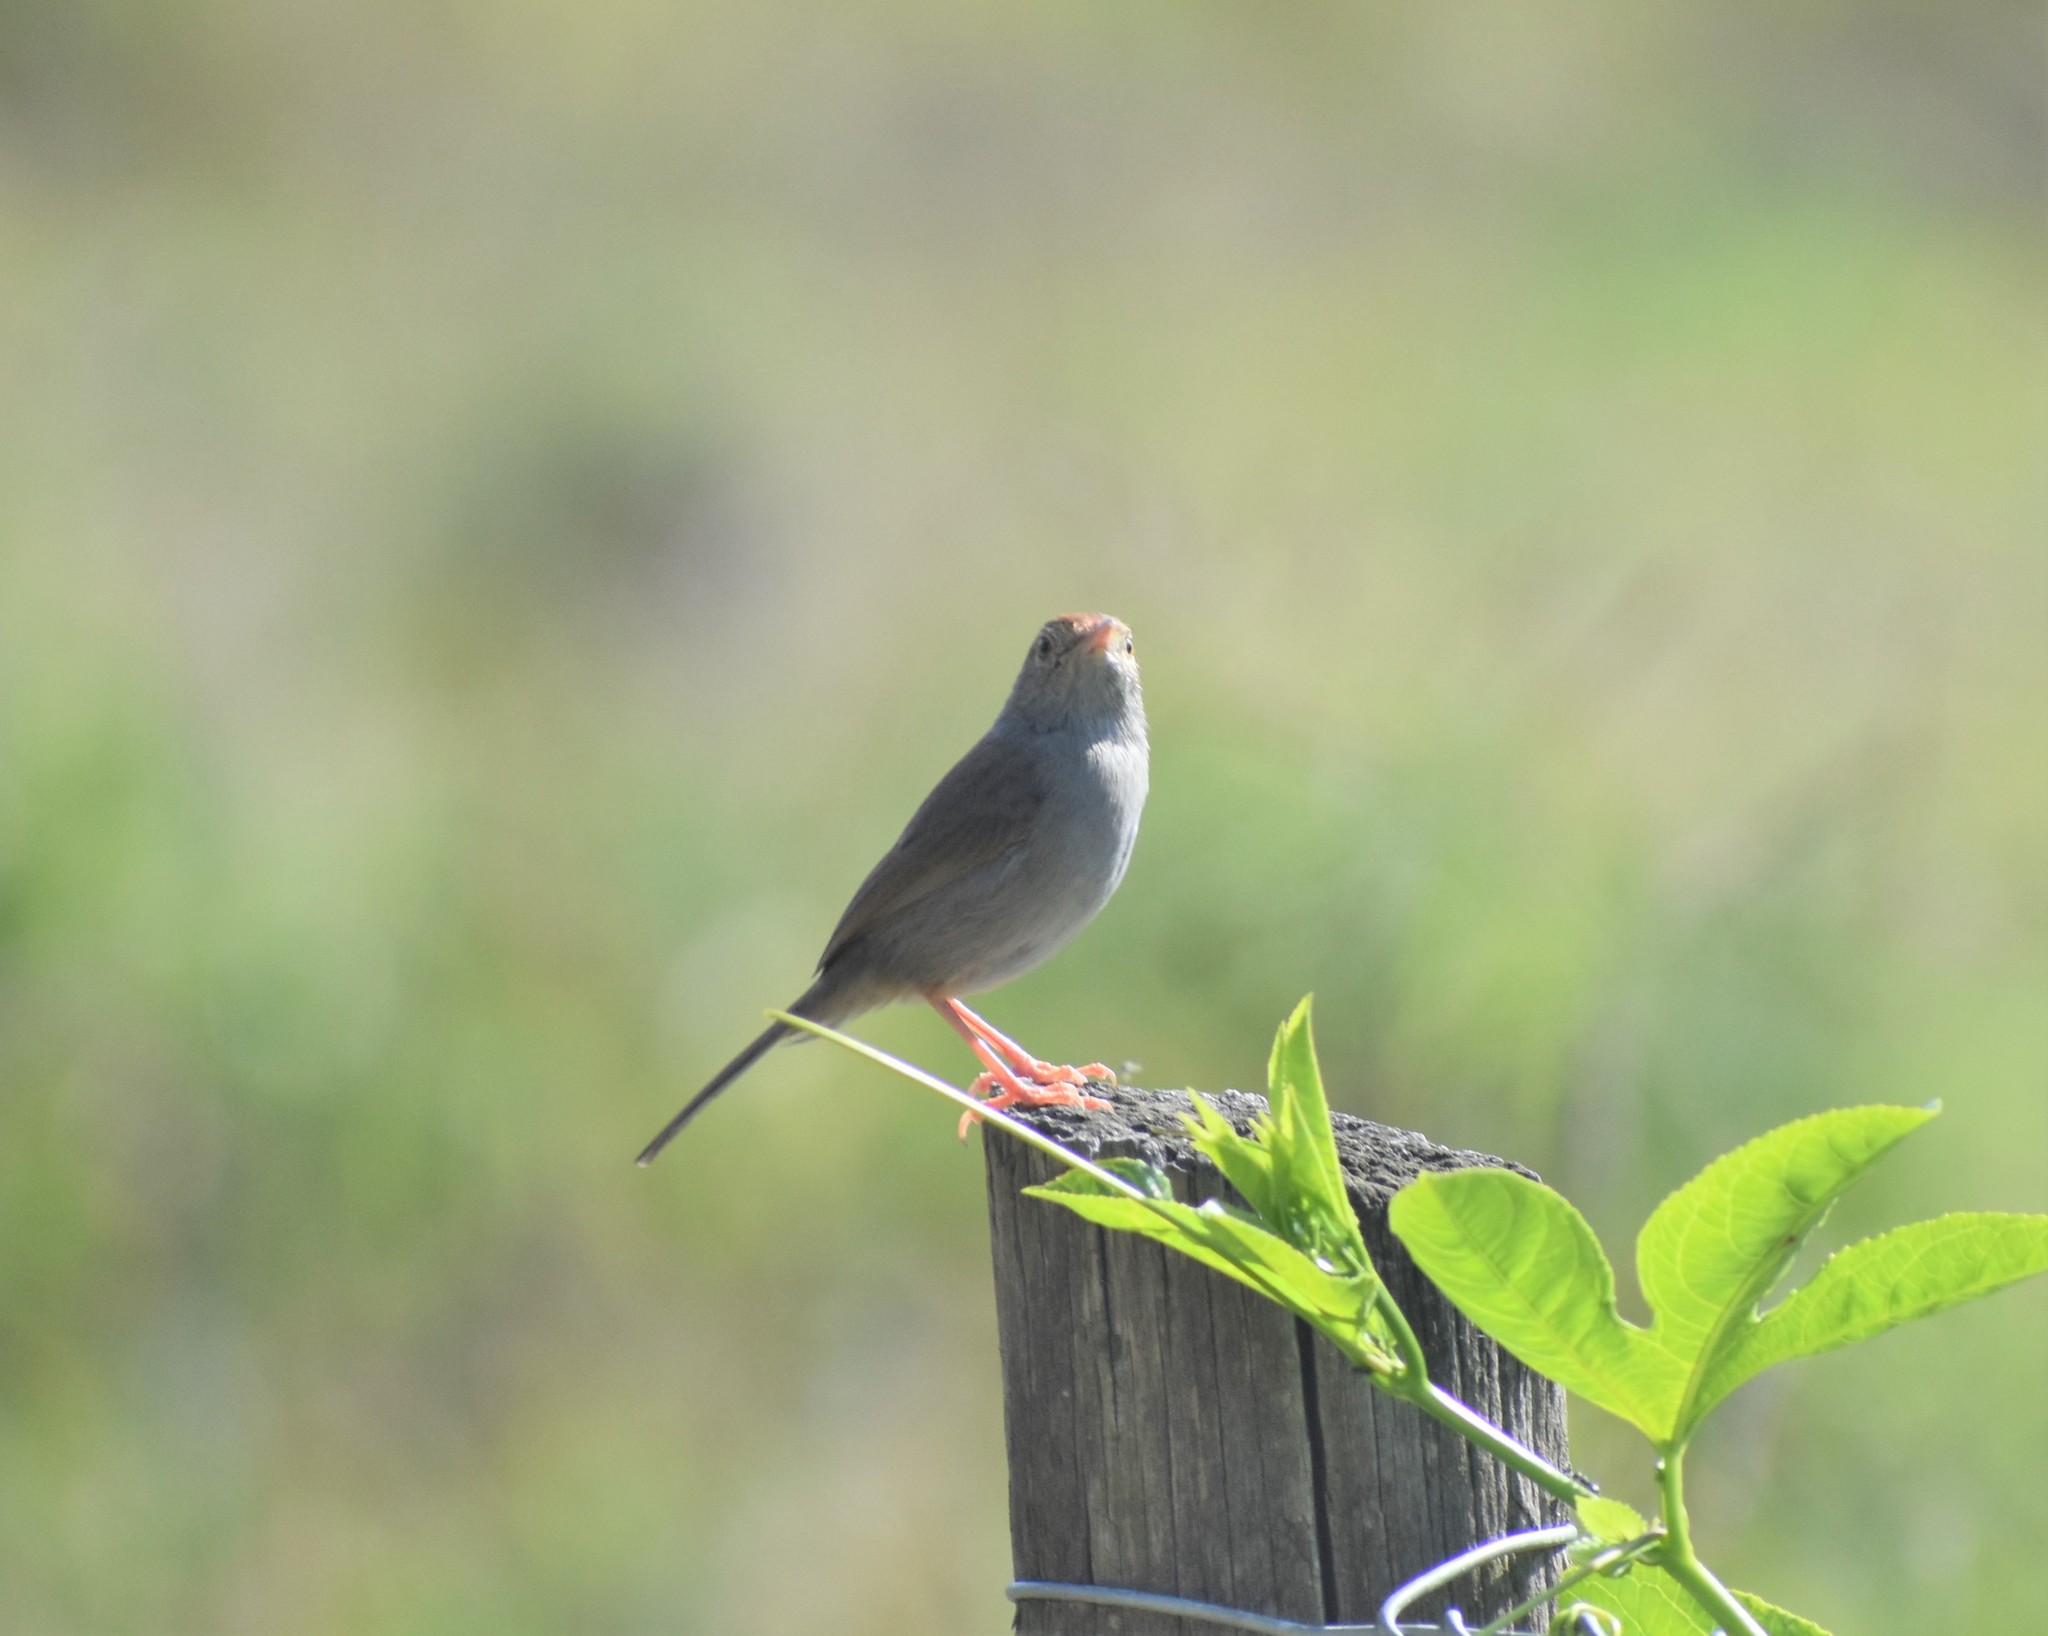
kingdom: Animalia
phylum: Chordata
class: Aves
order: Passeriformes
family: Cisticolidae
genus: Cisticola
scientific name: Cisticola fulvicapilla
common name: Neddicky
